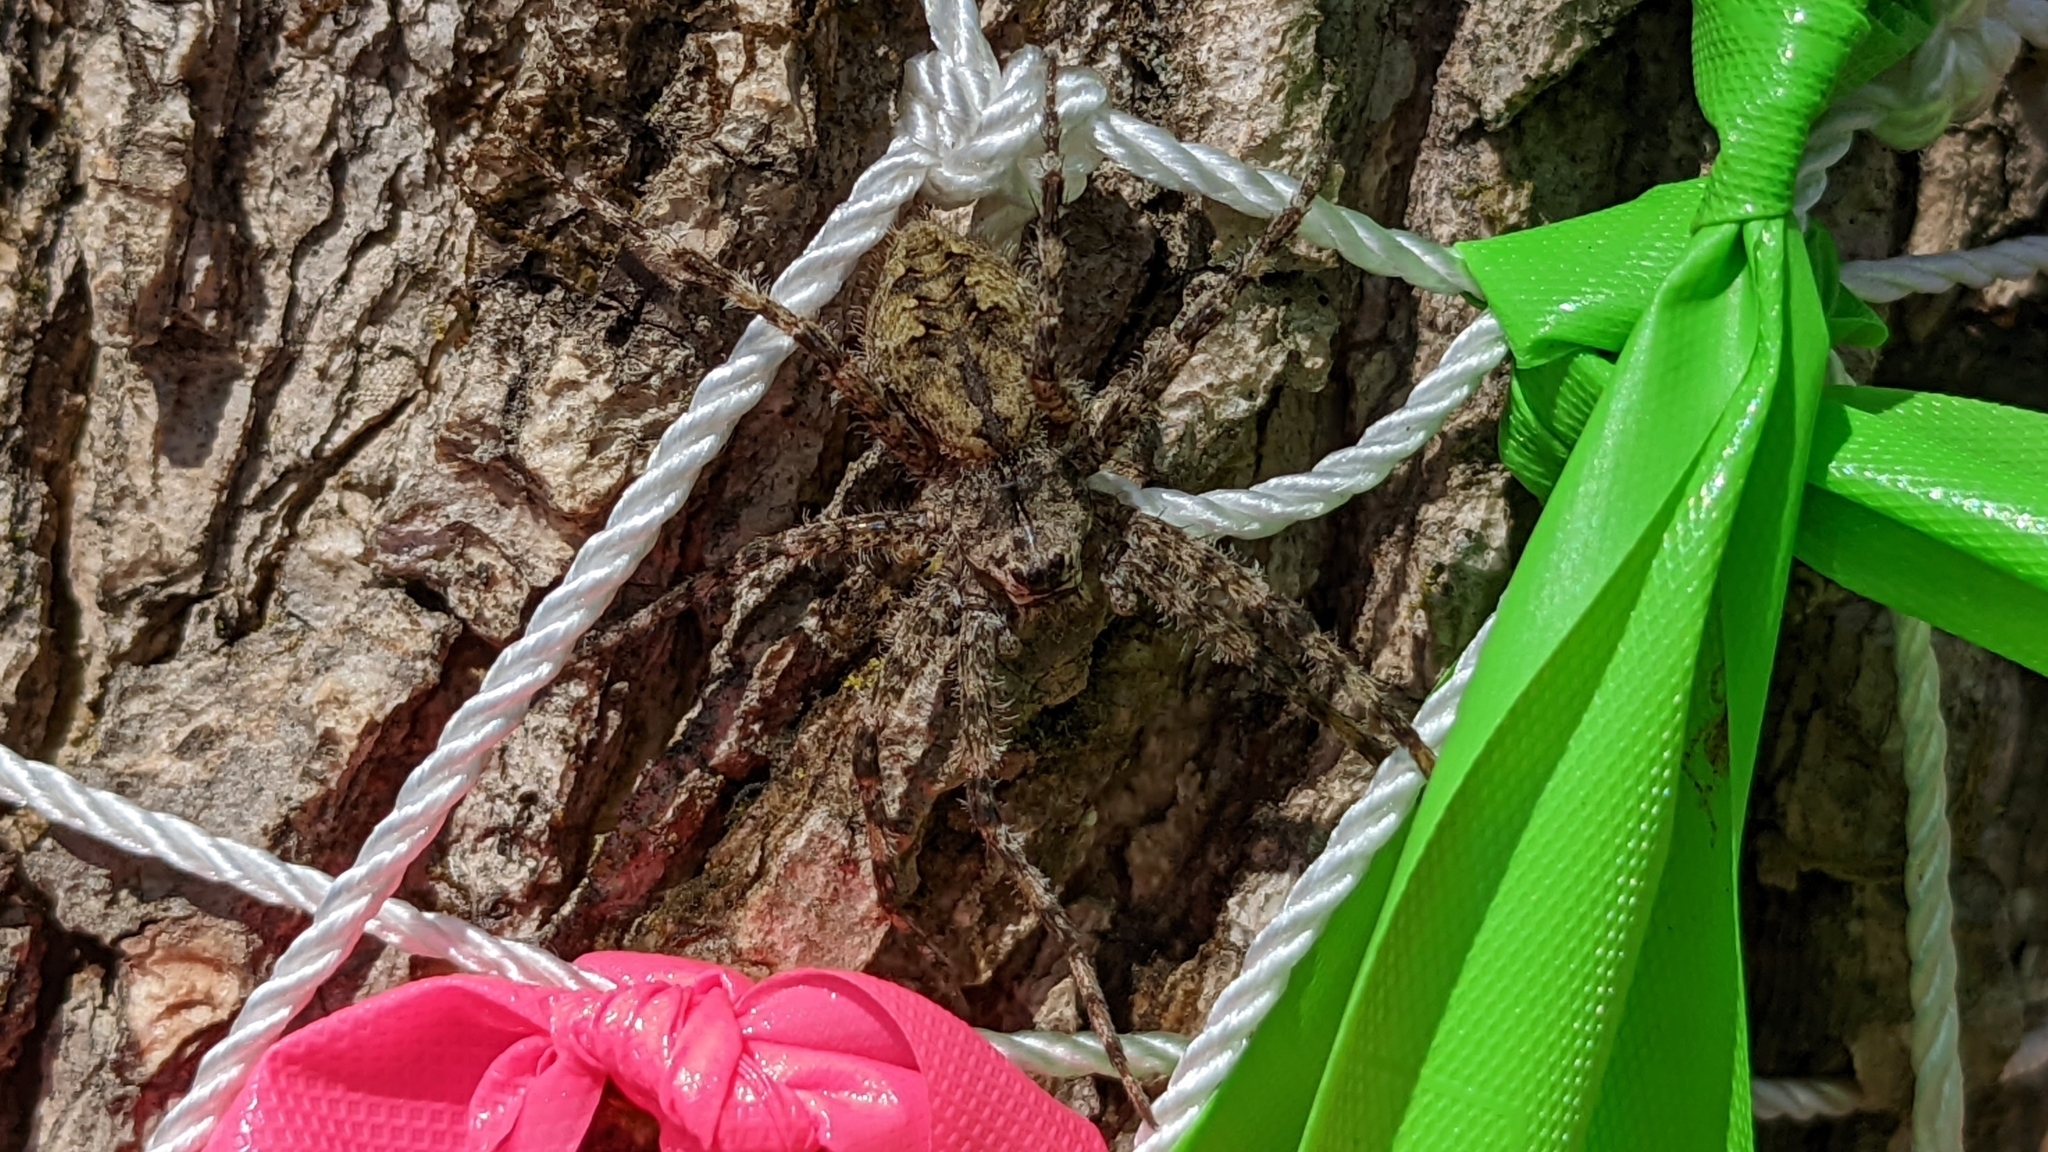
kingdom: Animalia
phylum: Arthropoda
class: Arachnida
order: Araneae
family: Pisauridae
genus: Dolomedes
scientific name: Dolomedes albineus
